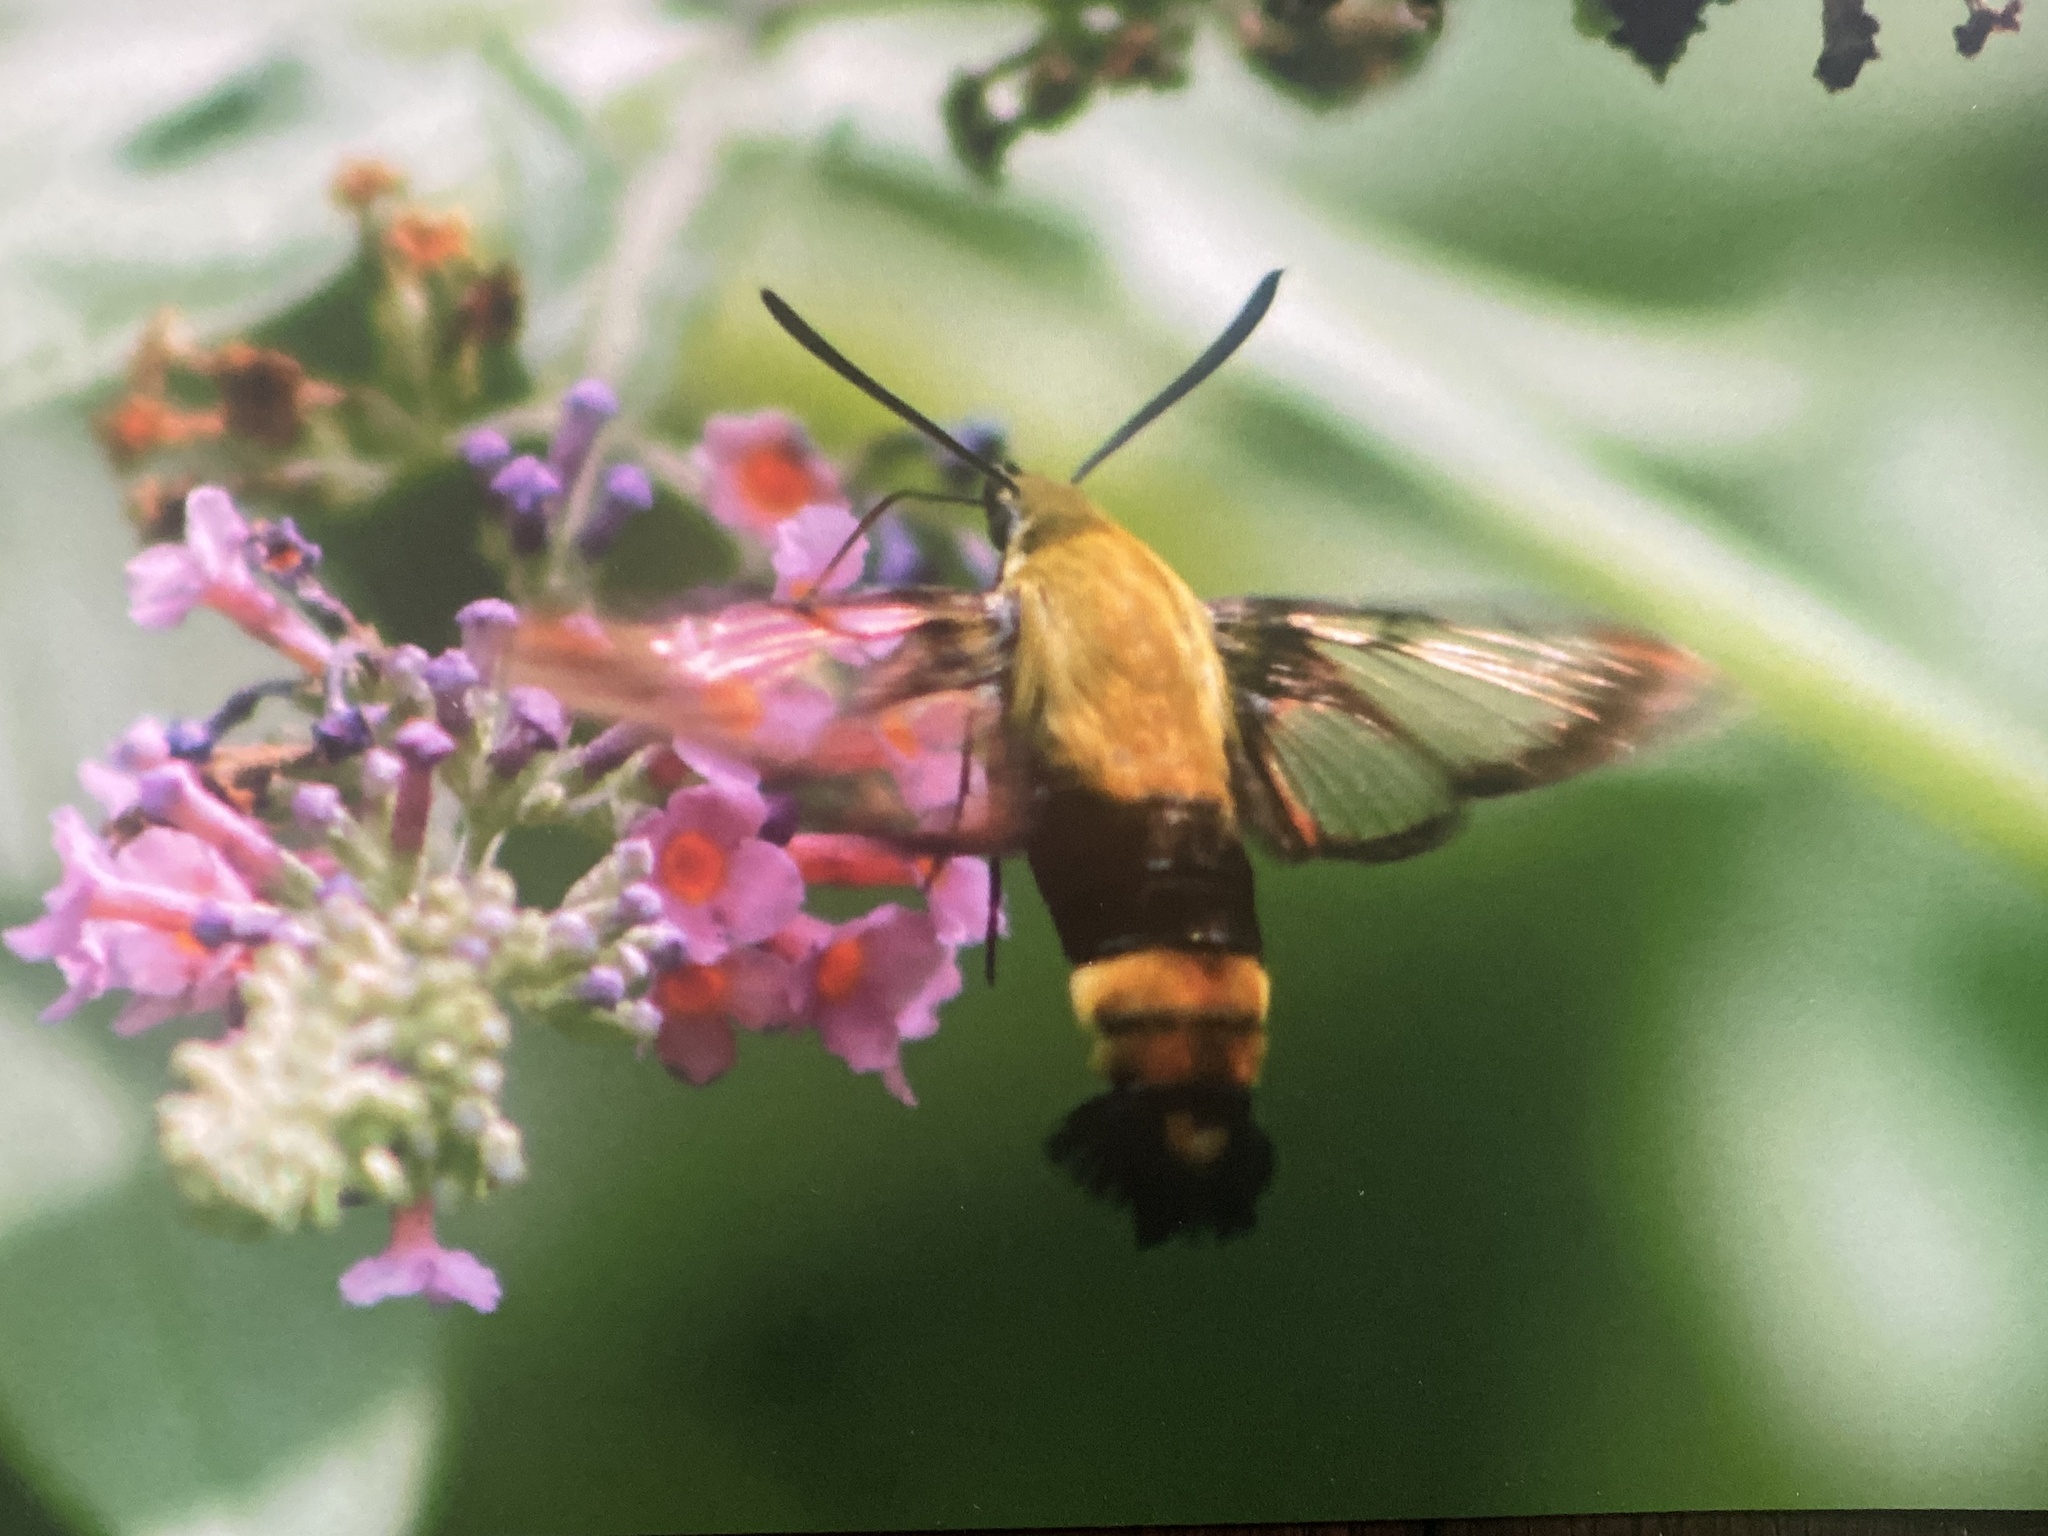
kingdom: Animalia
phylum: Arthropoda
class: Insecta
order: Lepidoptera
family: Sphingidae
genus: Hemaris
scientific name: Hemaris diffinis
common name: Bumblebee moth
